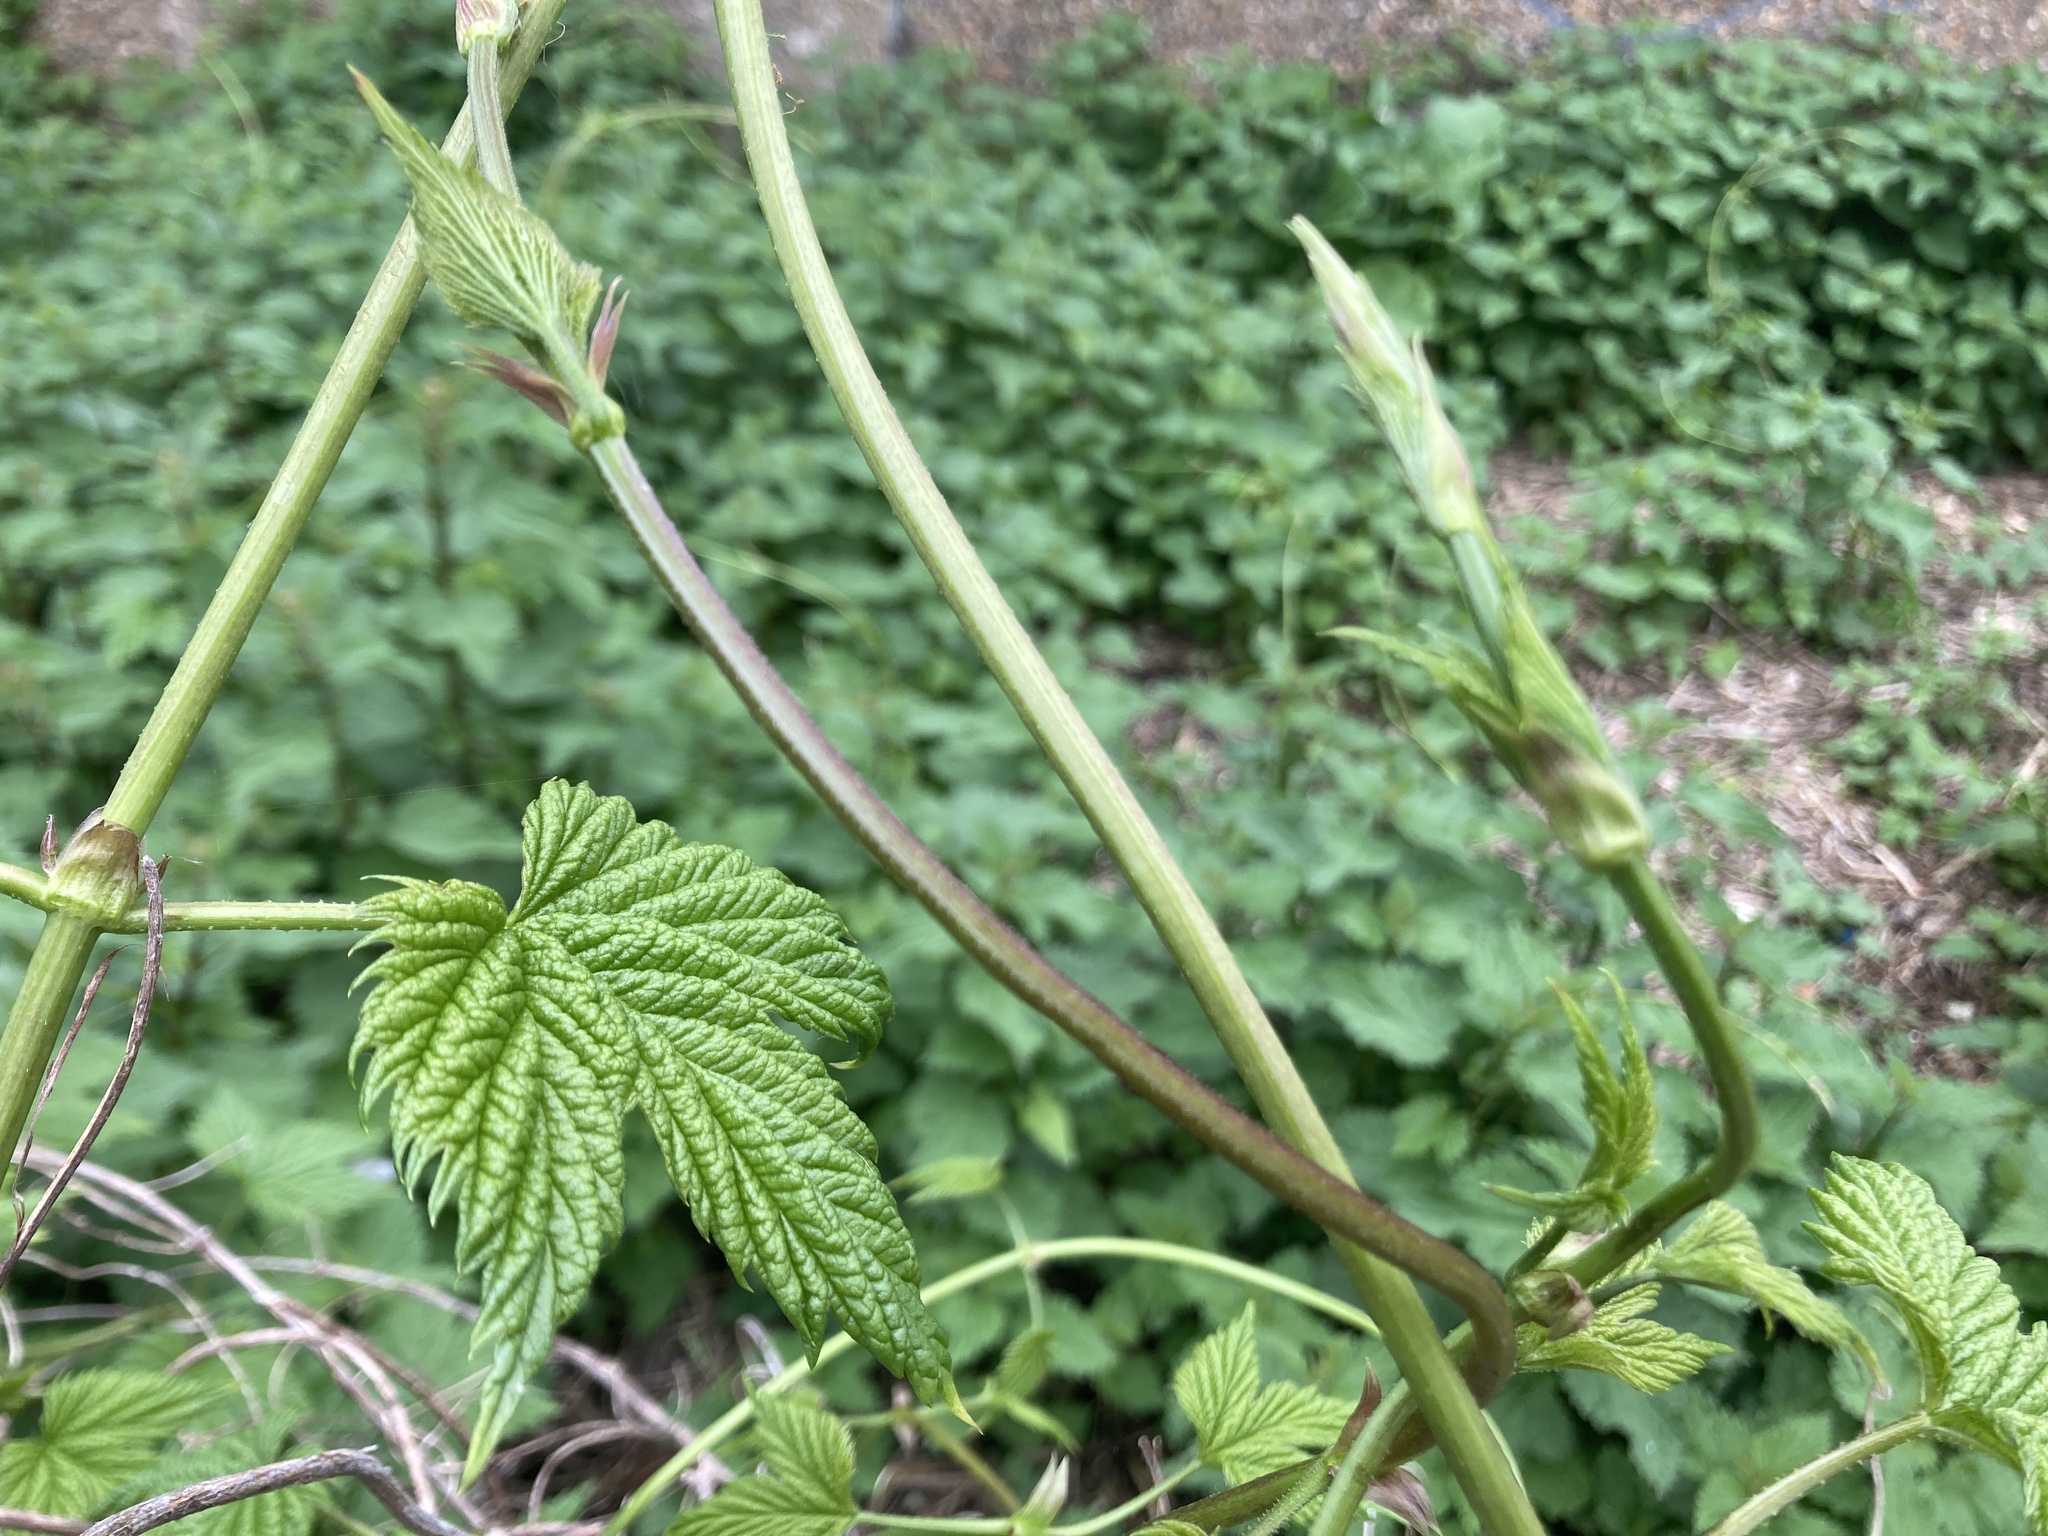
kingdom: Plantae
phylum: Tracheophyta
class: Magnoliopsida
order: Rosales
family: Cannabaceae
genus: Humulus
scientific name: Humulus lupulus
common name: Hop
